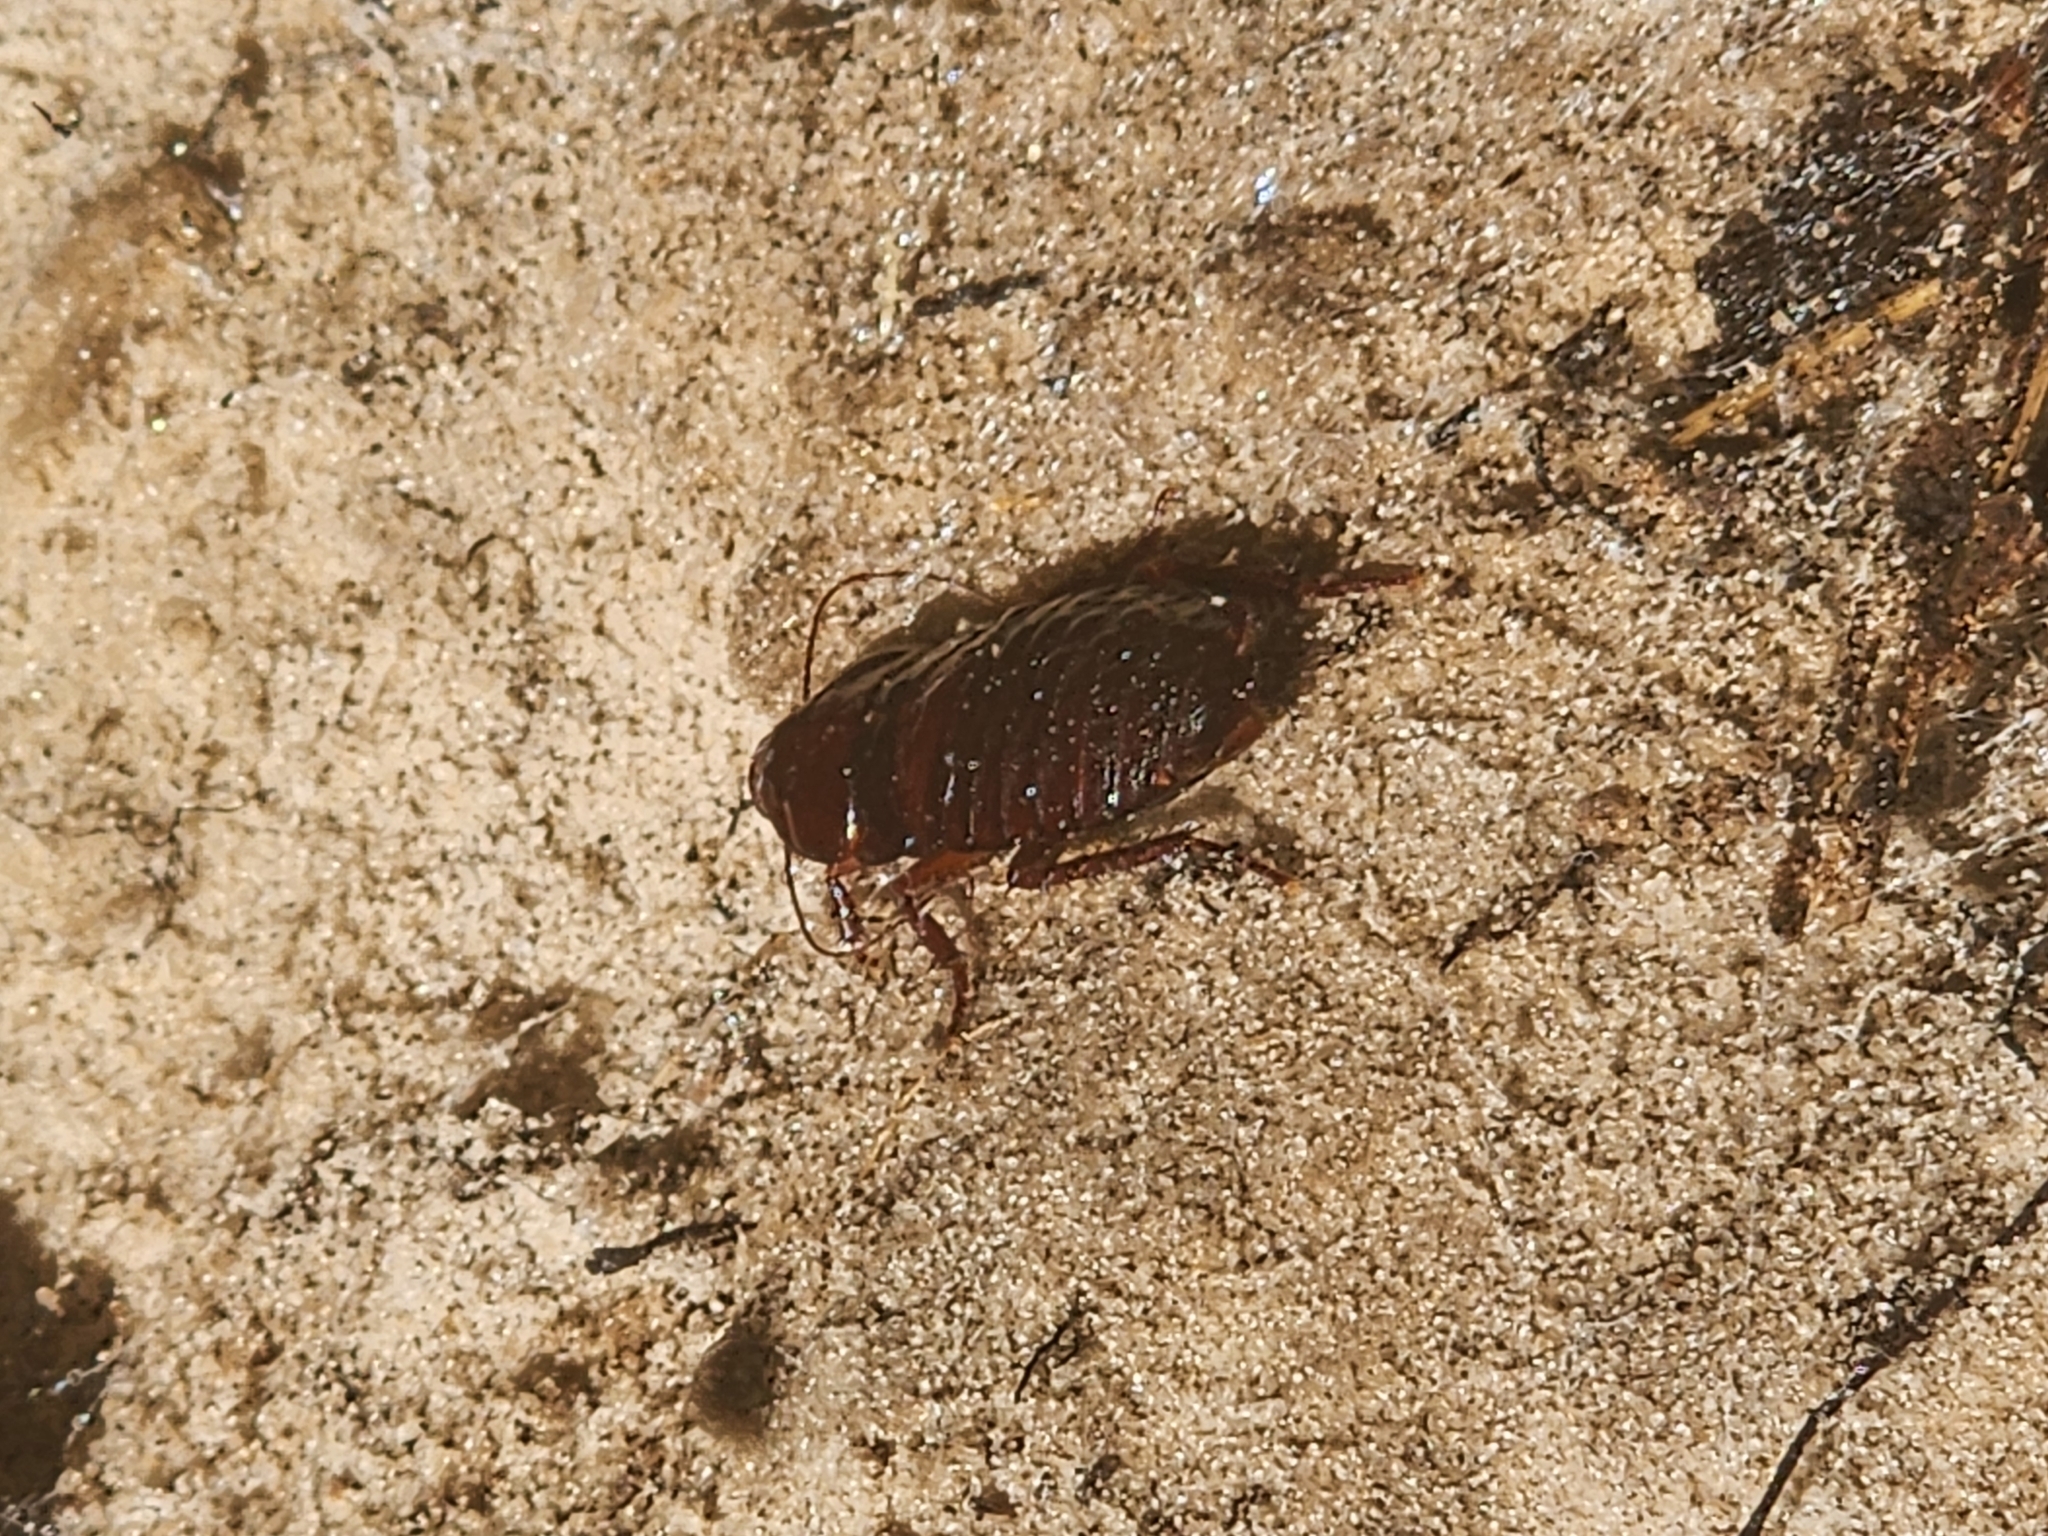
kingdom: Animalia
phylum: Arthropoda
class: Insecta
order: Blattodea
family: Blattidae
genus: Eurycotis
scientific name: Eurycotis floridana
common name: Florida cockroach
